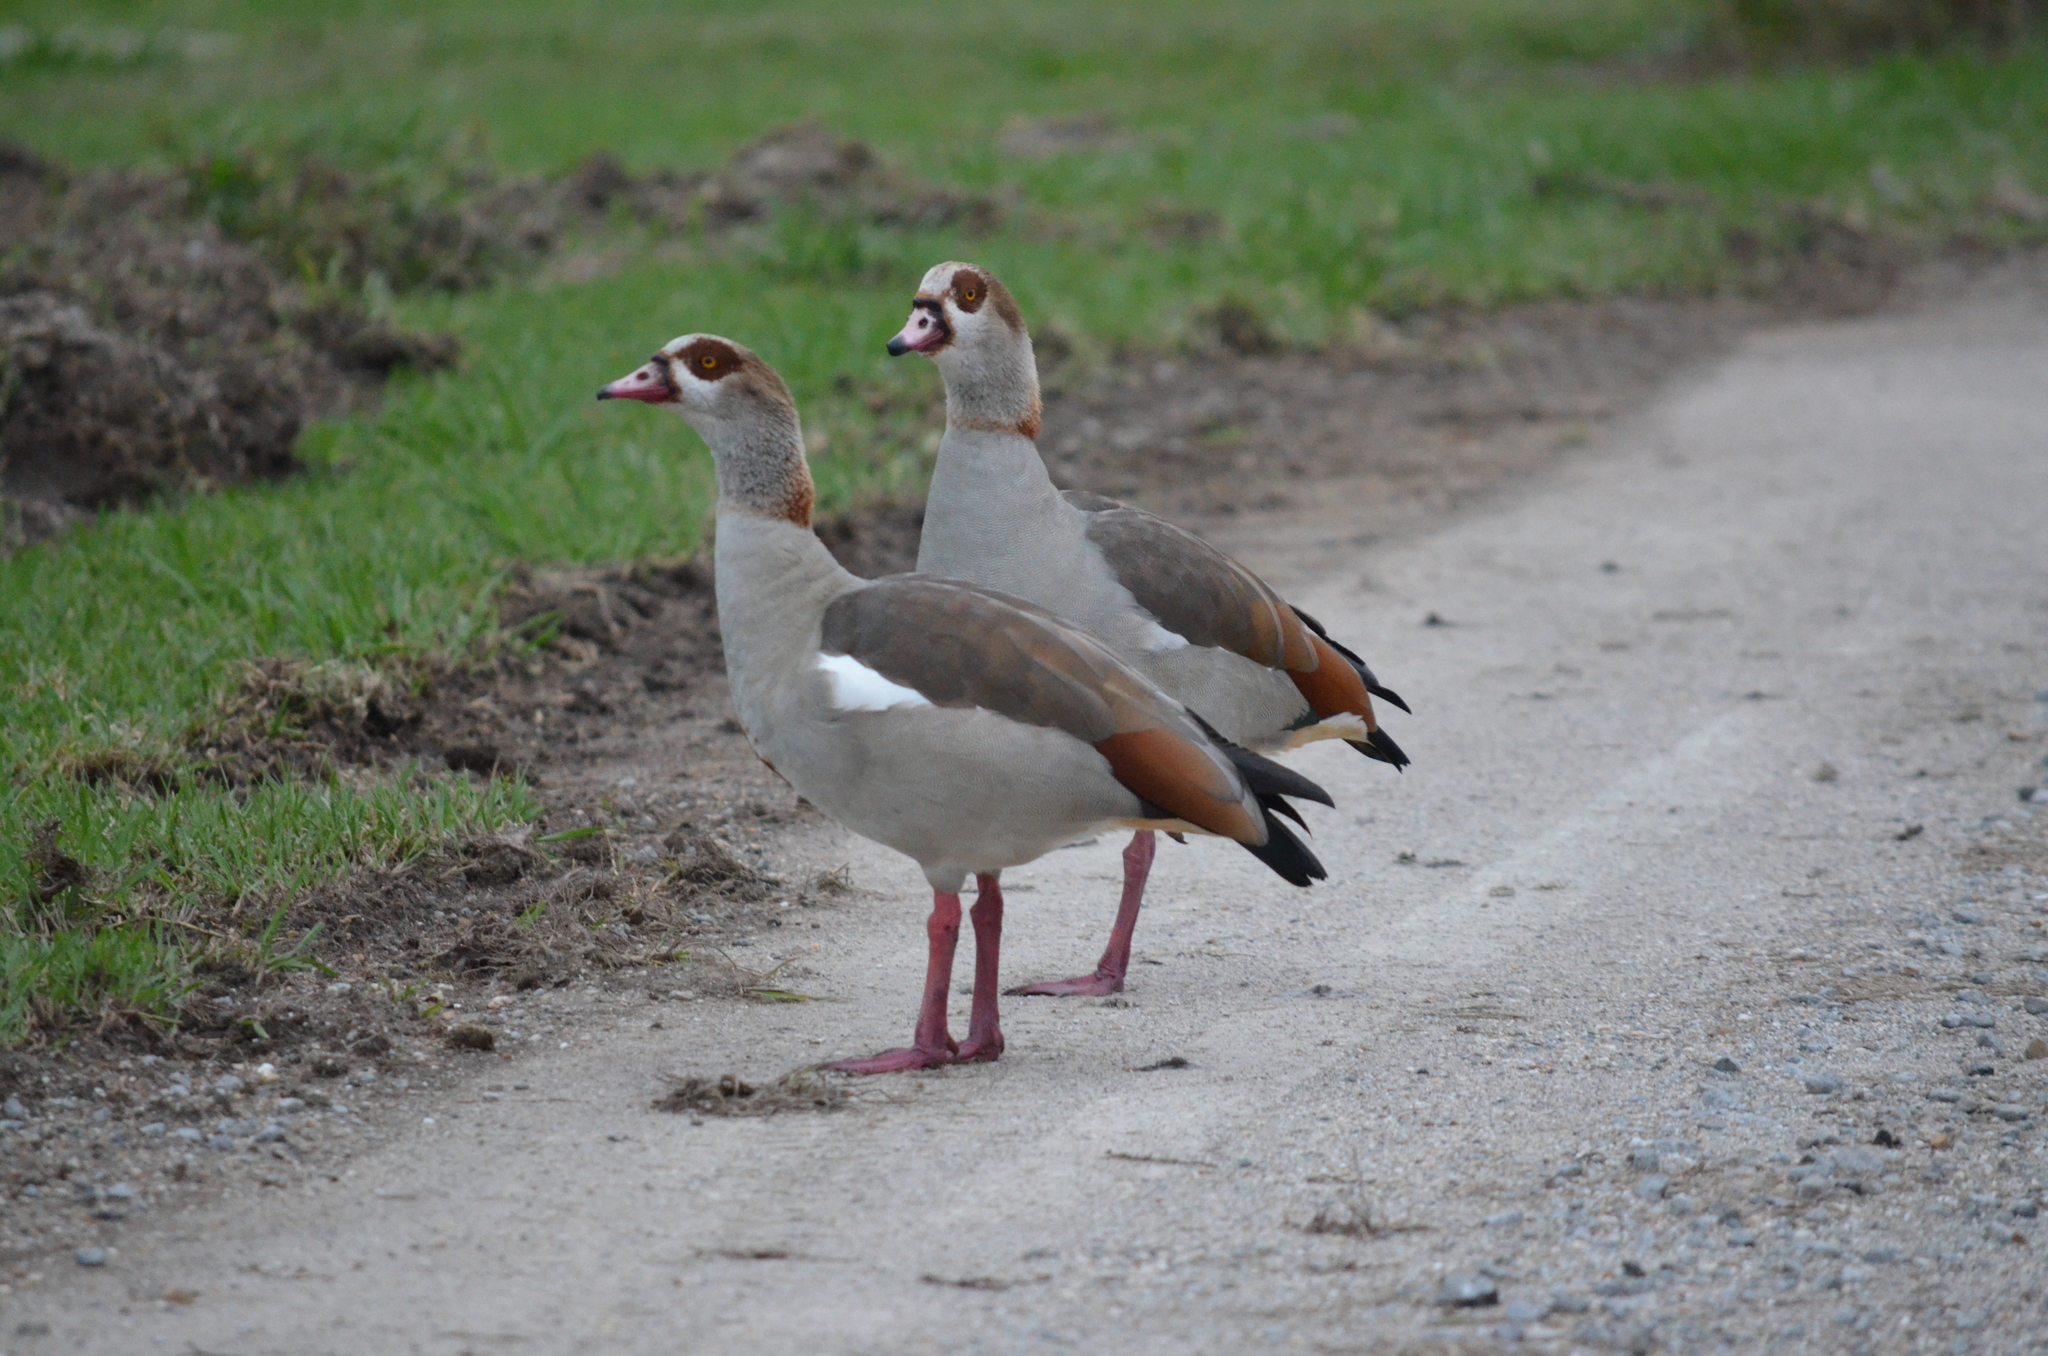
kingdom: Animalia
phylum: Chordata
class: Aves
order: Anseriformes
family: Anatidae
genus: Alopochen
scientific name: Alopochen aegyptiaca
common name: Egyptian goose
